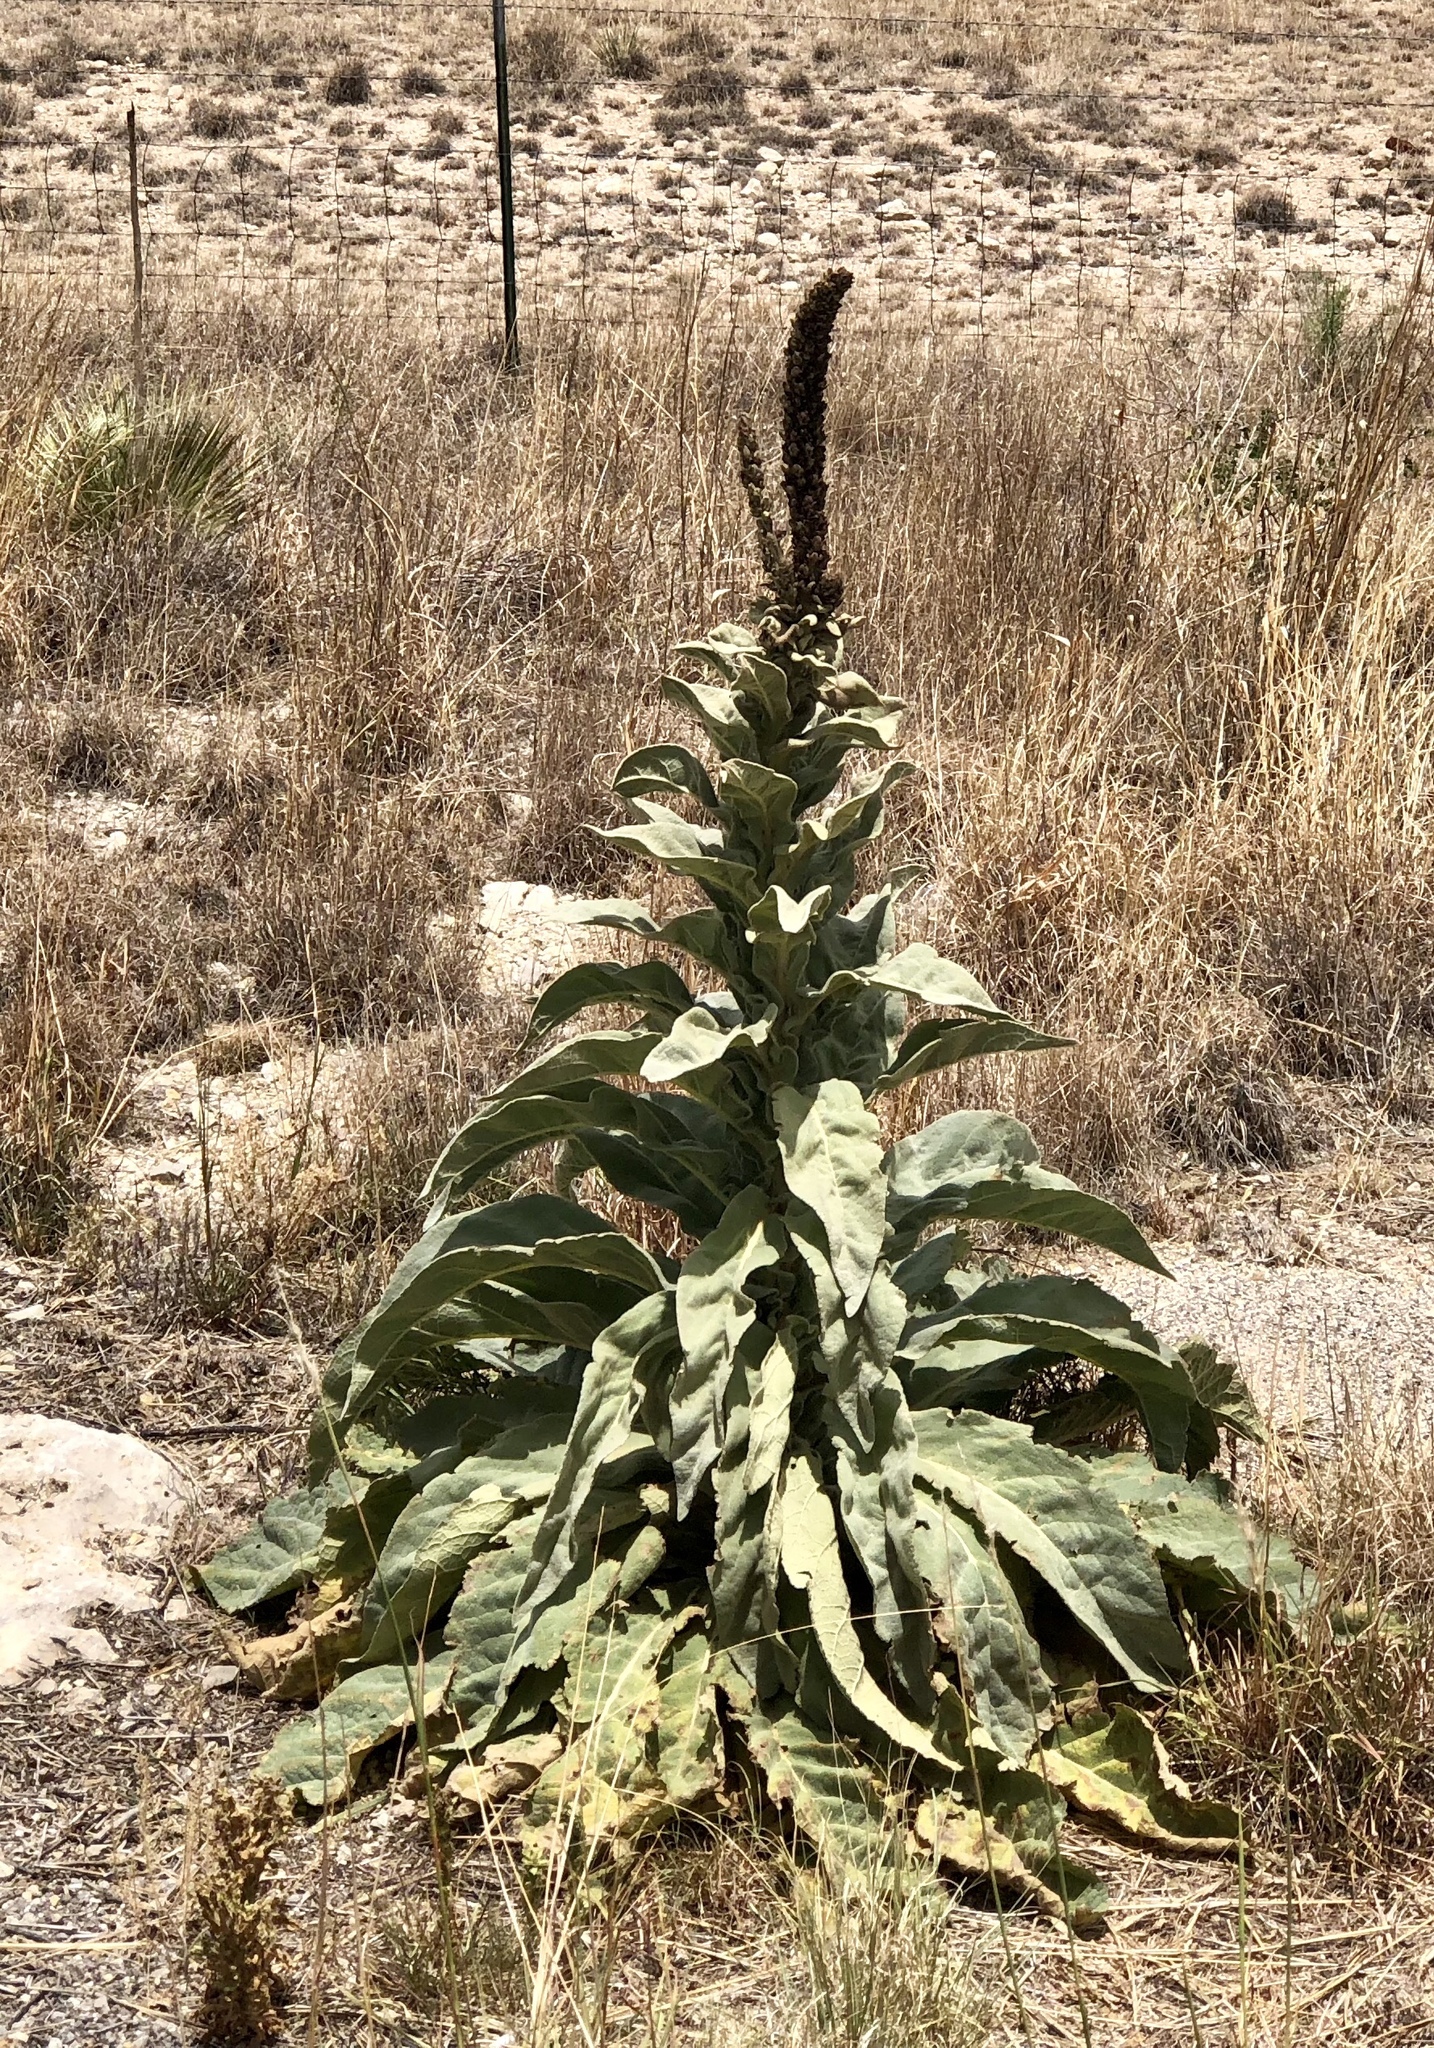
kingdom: Plantae
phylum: Tracheophyta
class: Magnoliopsida
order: Lamiales
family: Scrophulariaceae
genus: Verbascum
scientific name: Verbascum thapsus
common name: Common mullein
